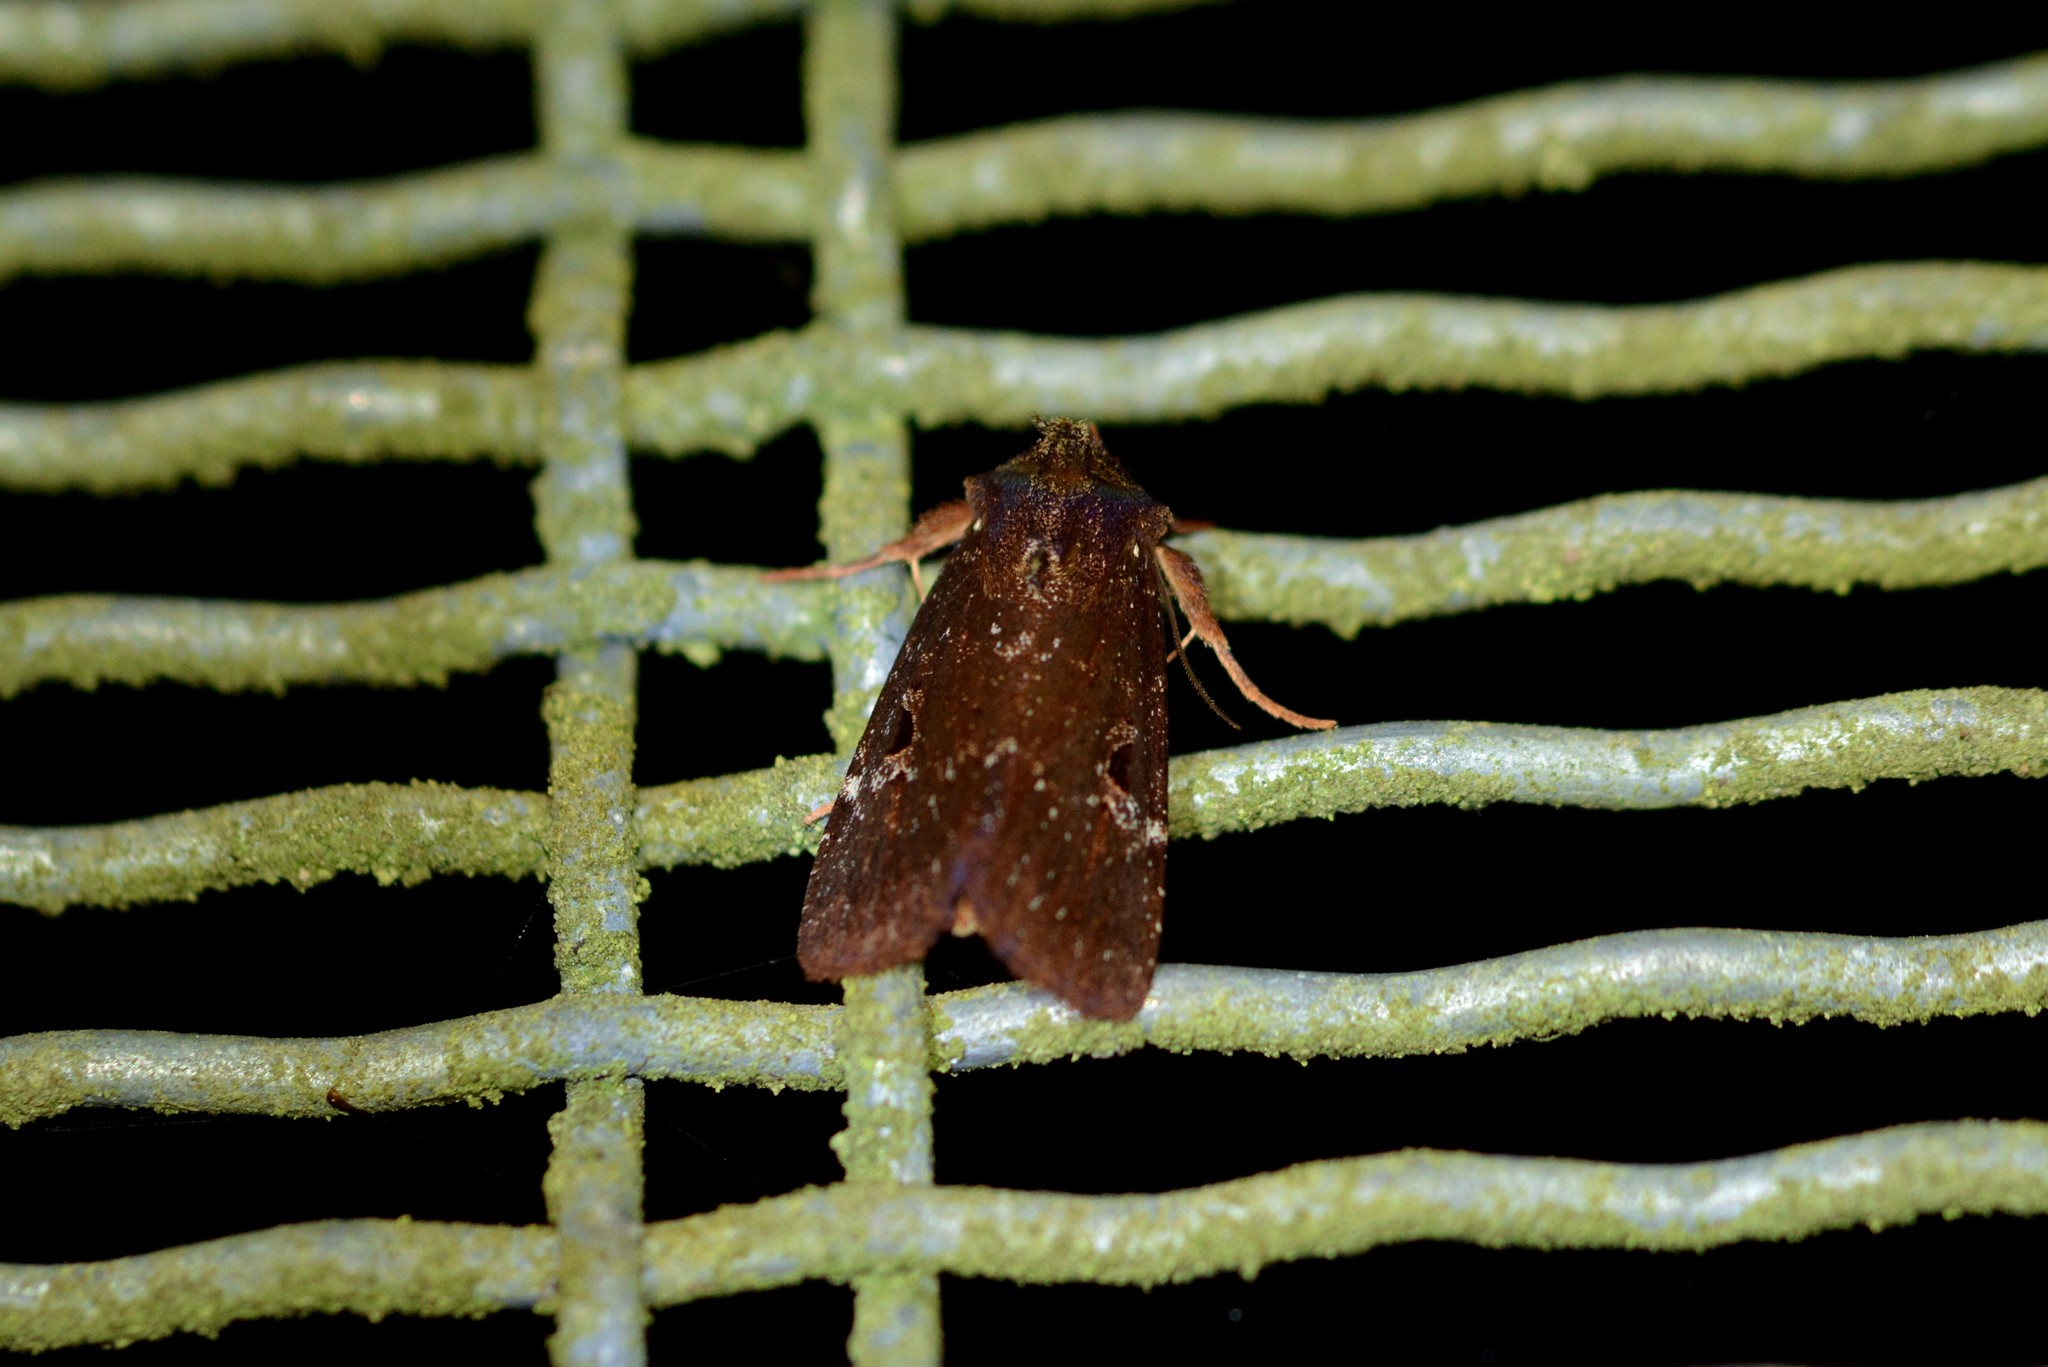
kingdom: Animalia
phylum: Arthropoda
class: Insecta
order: Lepidoptera
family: Noctuidae
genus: Austramathes
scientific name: Austramathes purpurea
